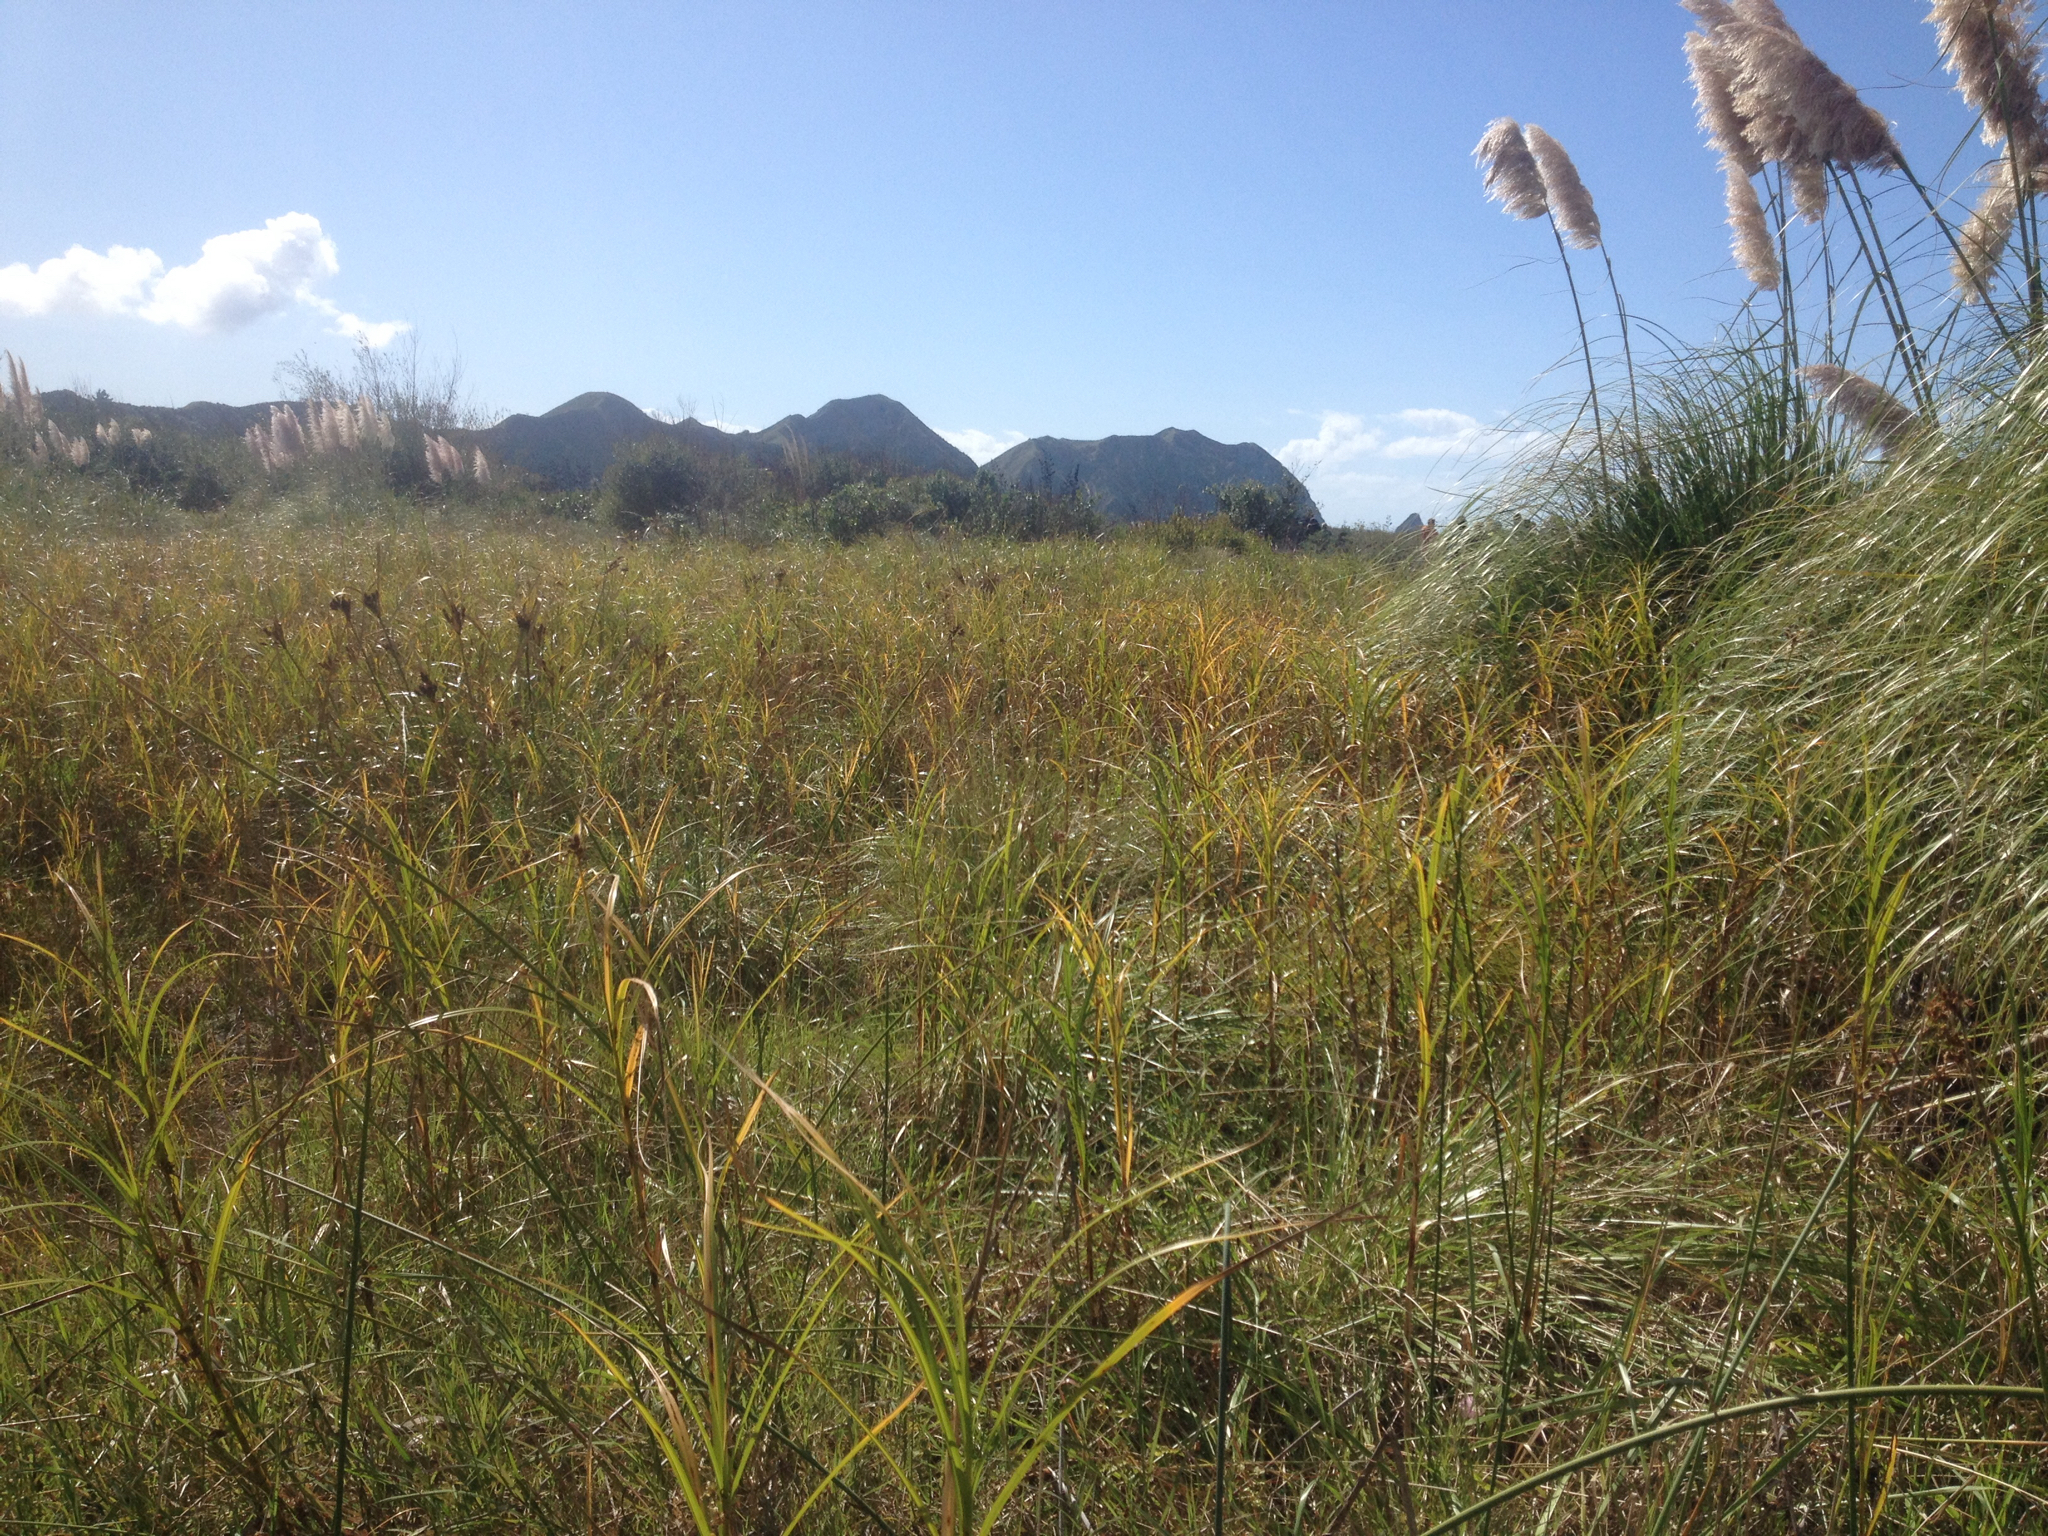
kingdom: Plantae
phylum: Tracheophyta
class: Liliopsida
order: Poales
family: Poaceae
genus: Cortaderia
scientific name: Cortaderia selloana
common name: Uruguayan pampas grass
